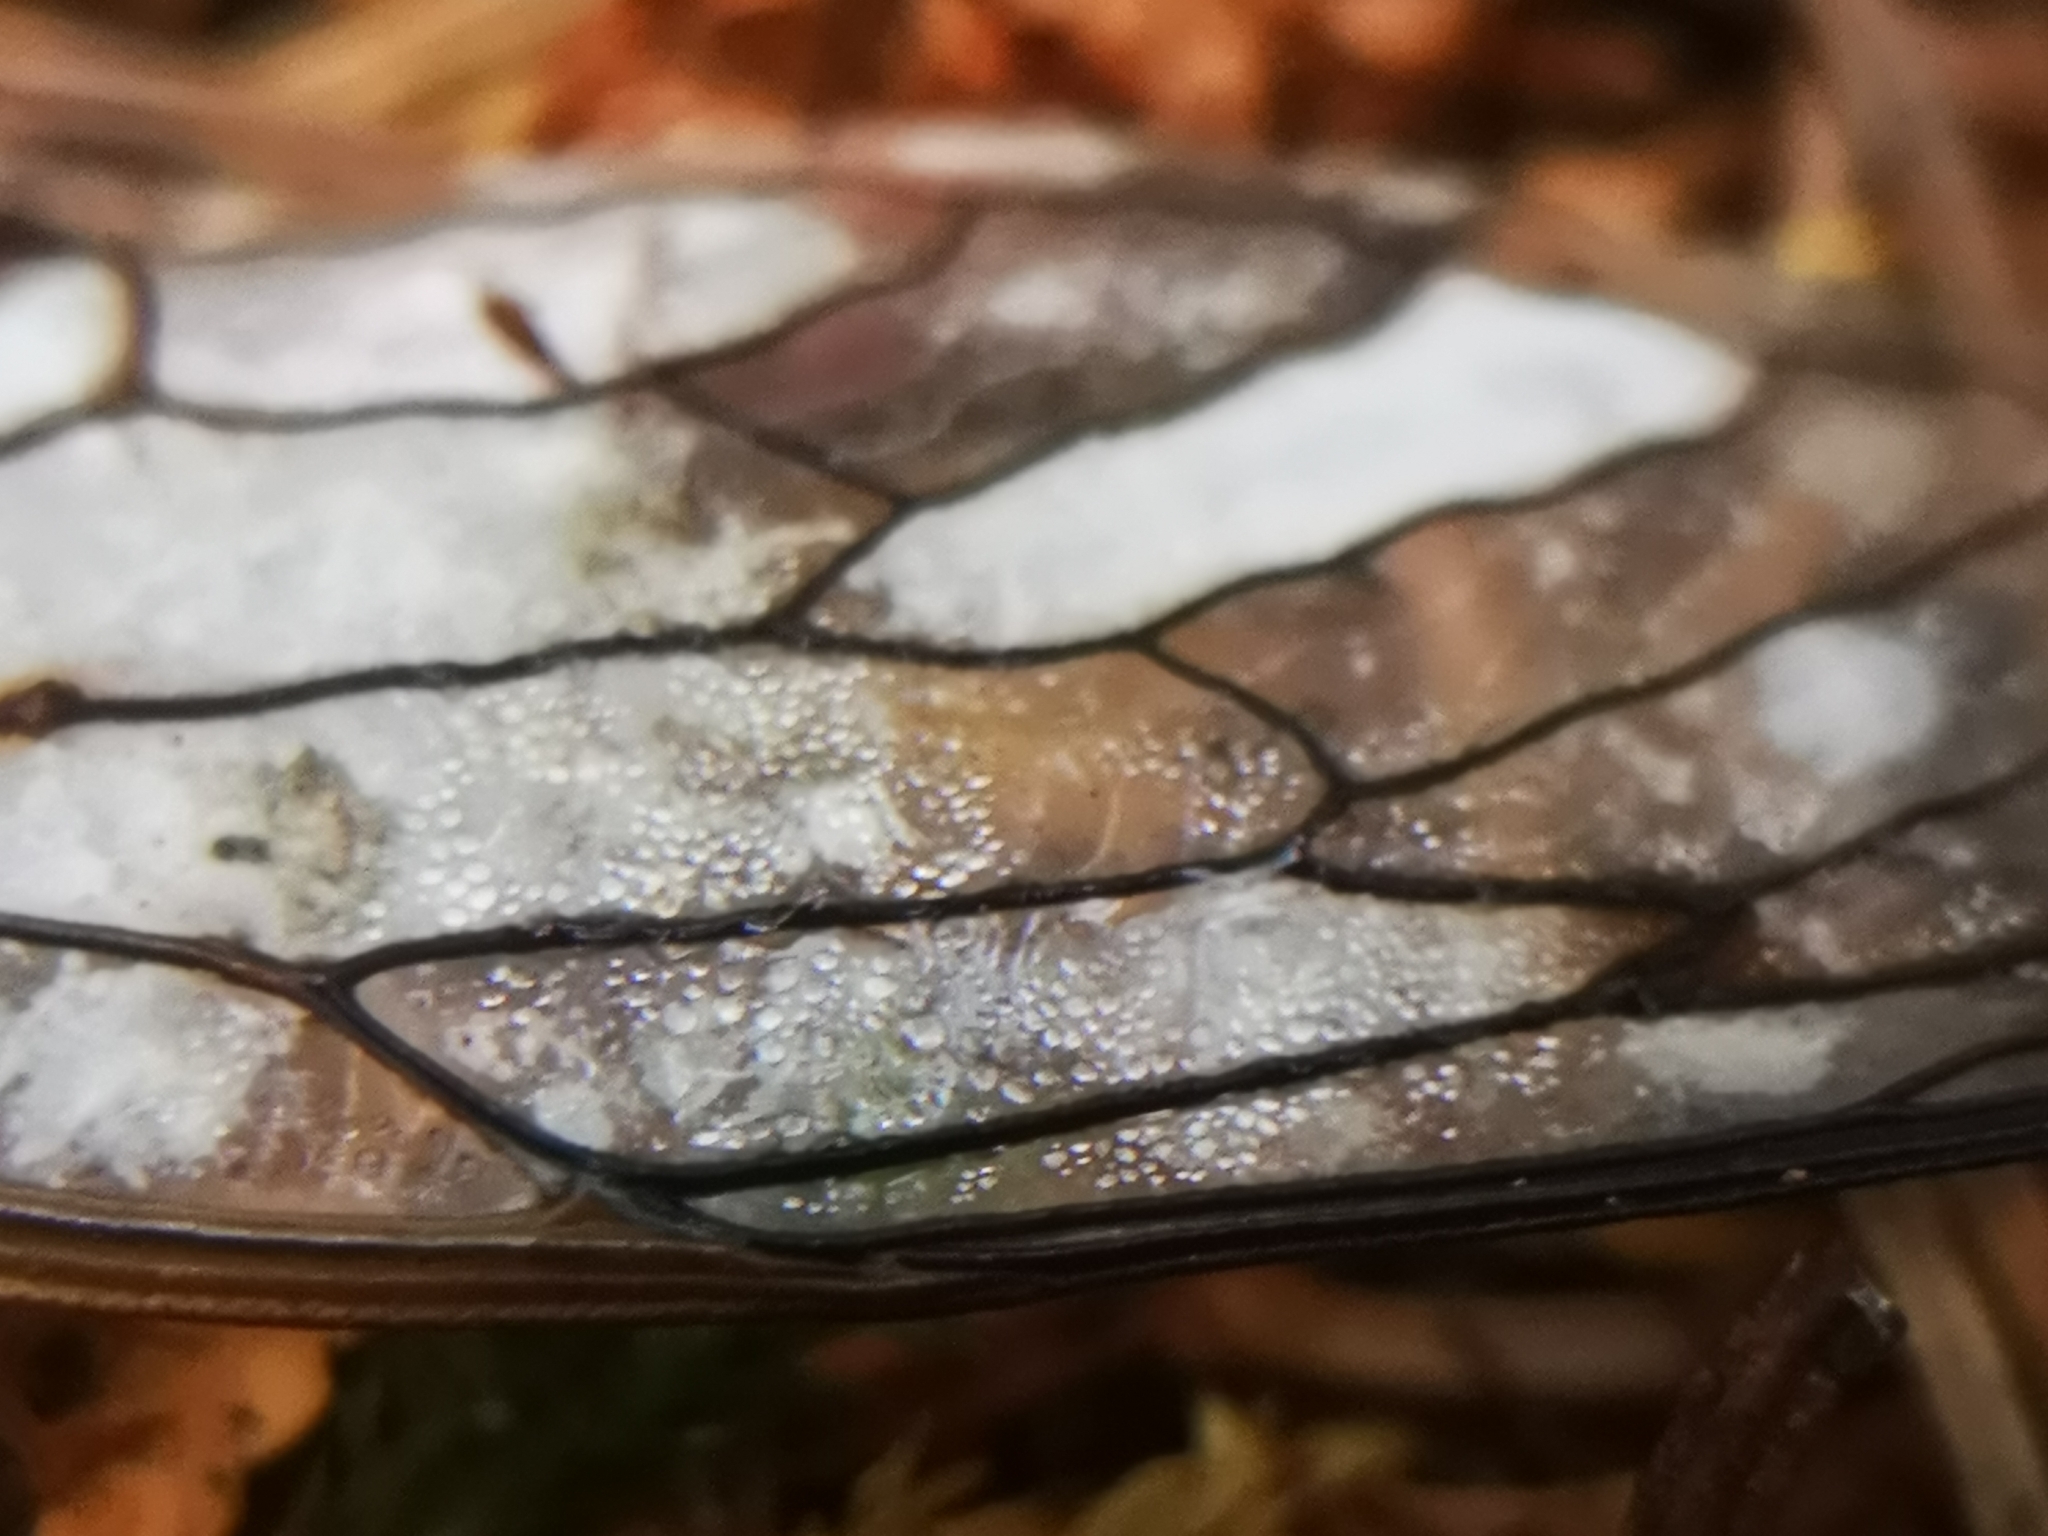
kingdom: Fungi
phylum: Ascomycota
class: Sordariomycetes
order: Hypocreales
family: Cordycipitaceae
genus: Beauveria
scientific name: Beauveria bassiana
